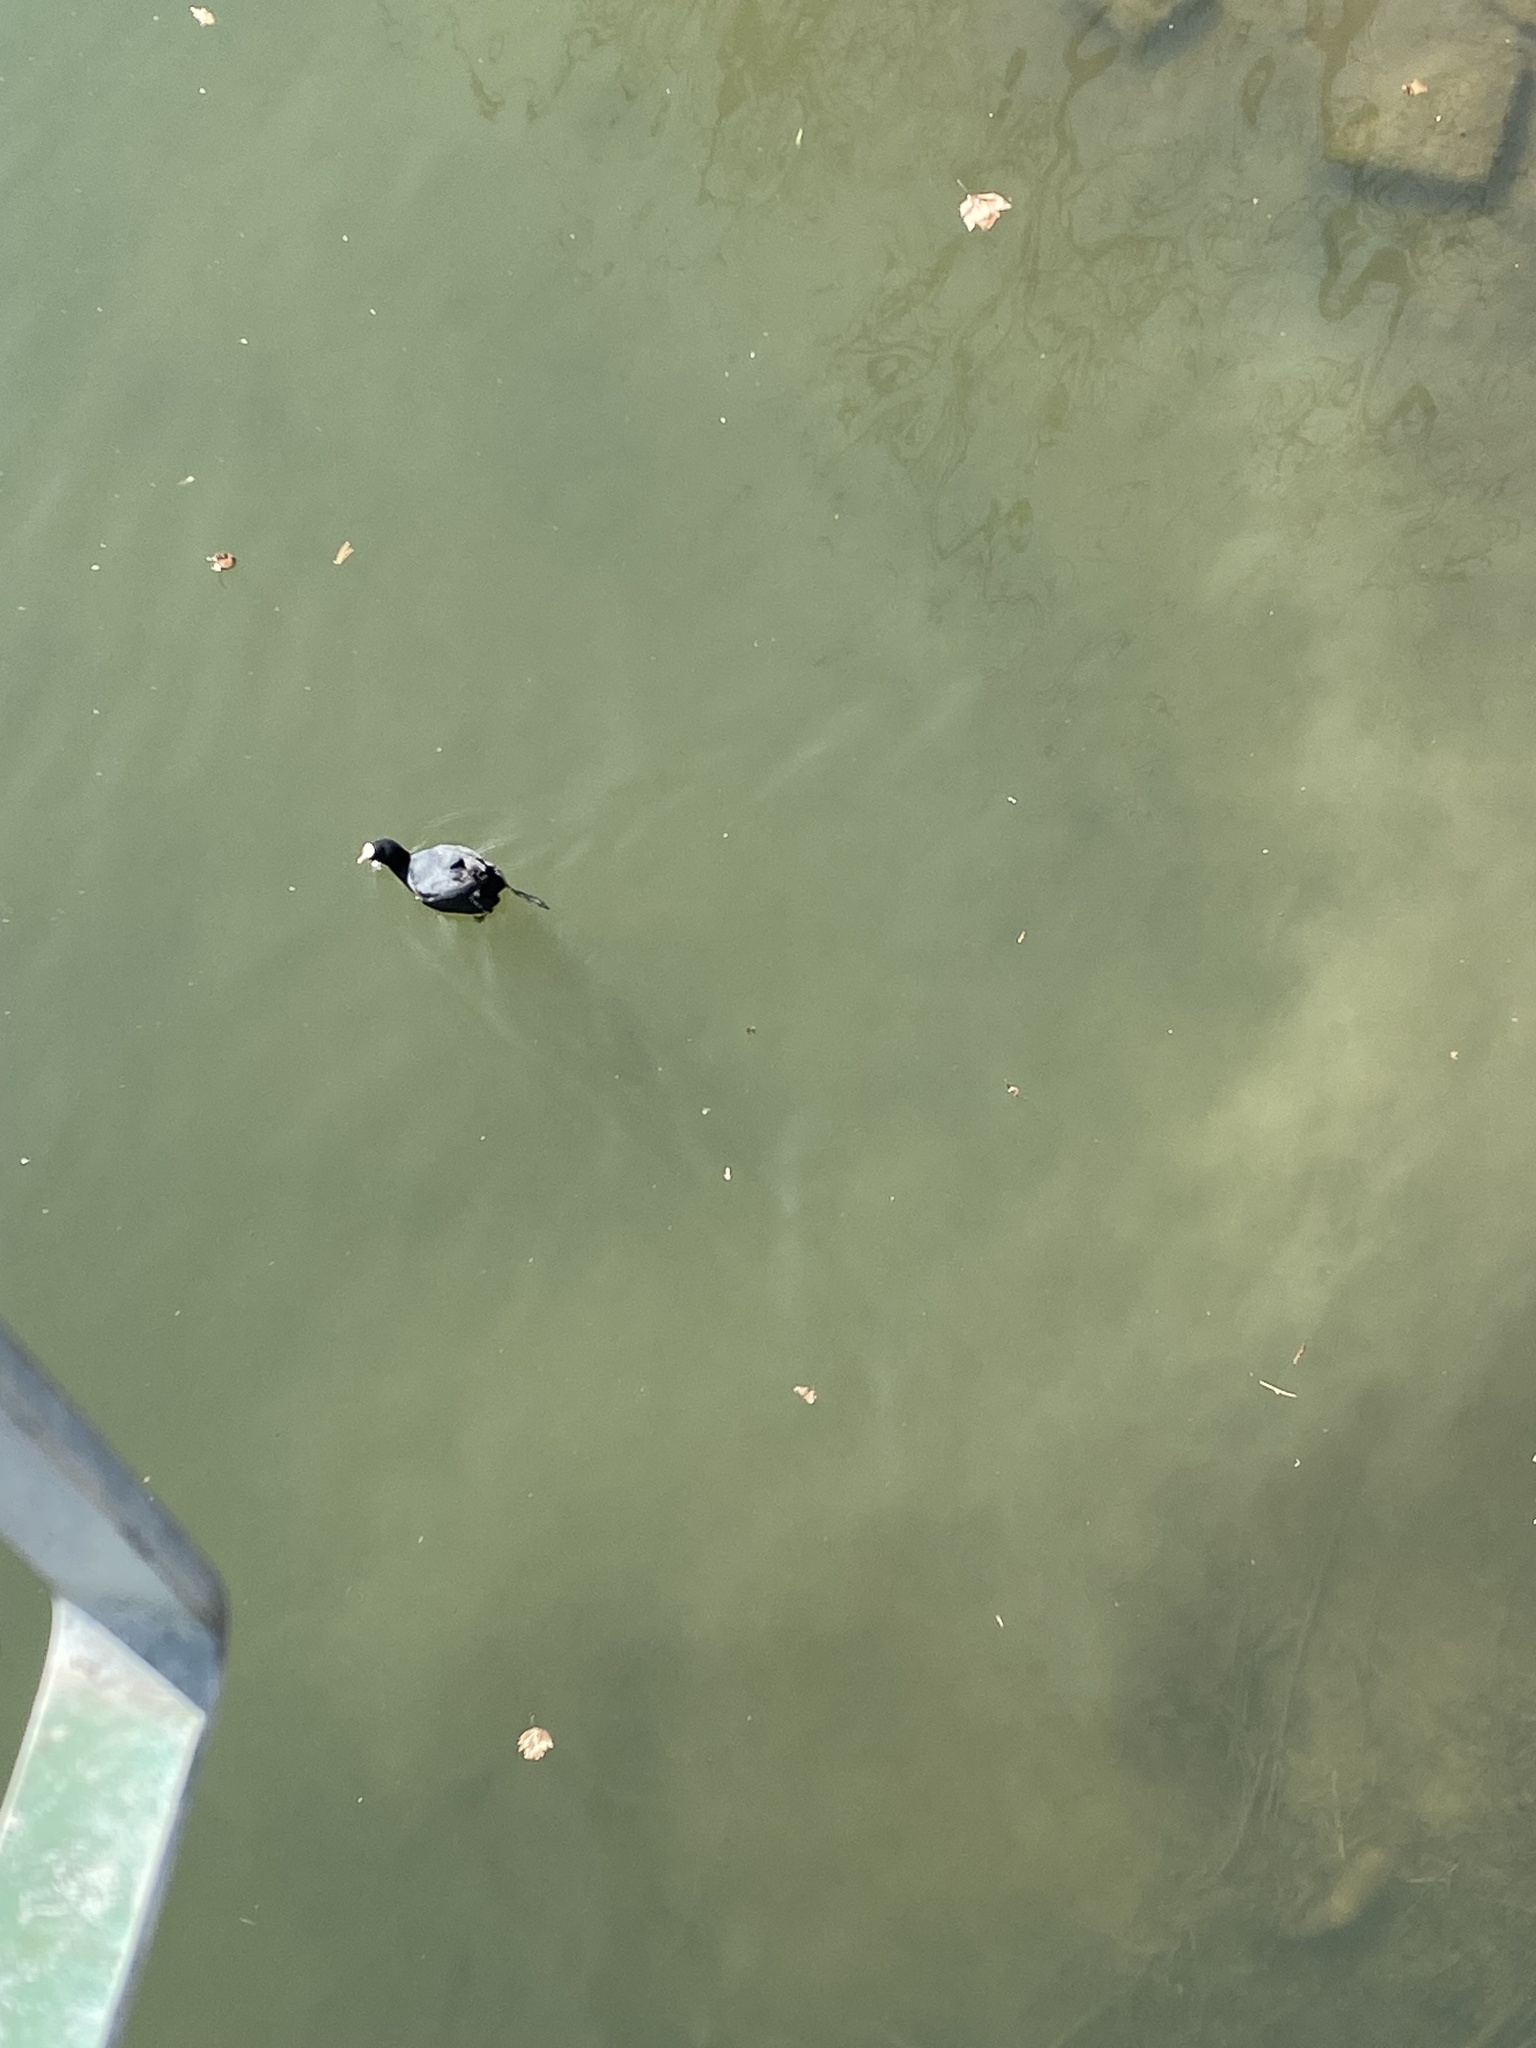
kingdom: Animalia
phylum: Chordata
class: Aves
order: Gruiformes
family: Rallidae
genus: Fulica
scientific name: Fulica atra
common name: Eurasian coot
